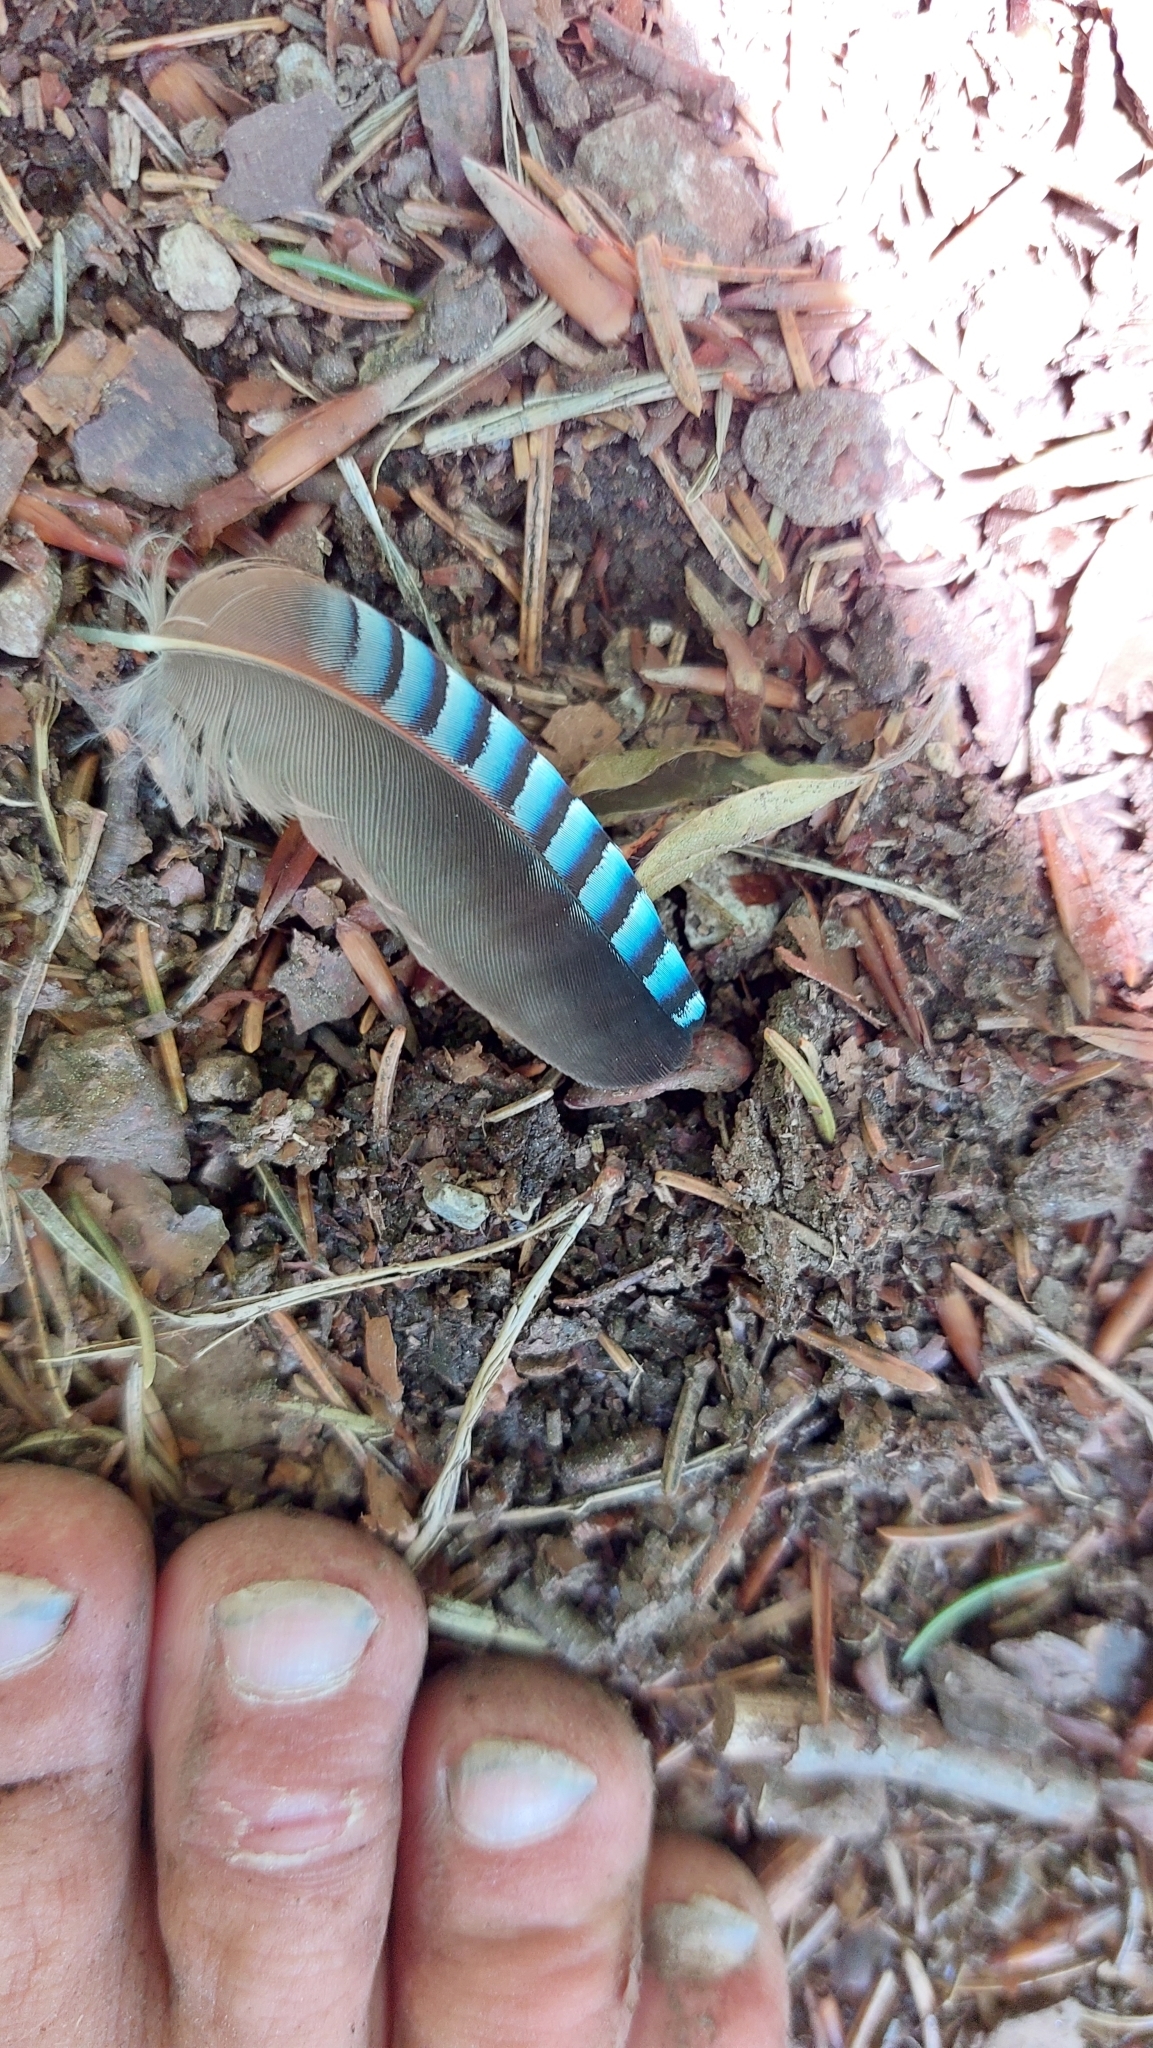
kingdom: Animalia
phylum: Chordata
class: Aves
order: Passeriformes
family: Corvidae
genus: Garrulus
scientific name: Garrulus glandarius
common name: Eurasian jay
